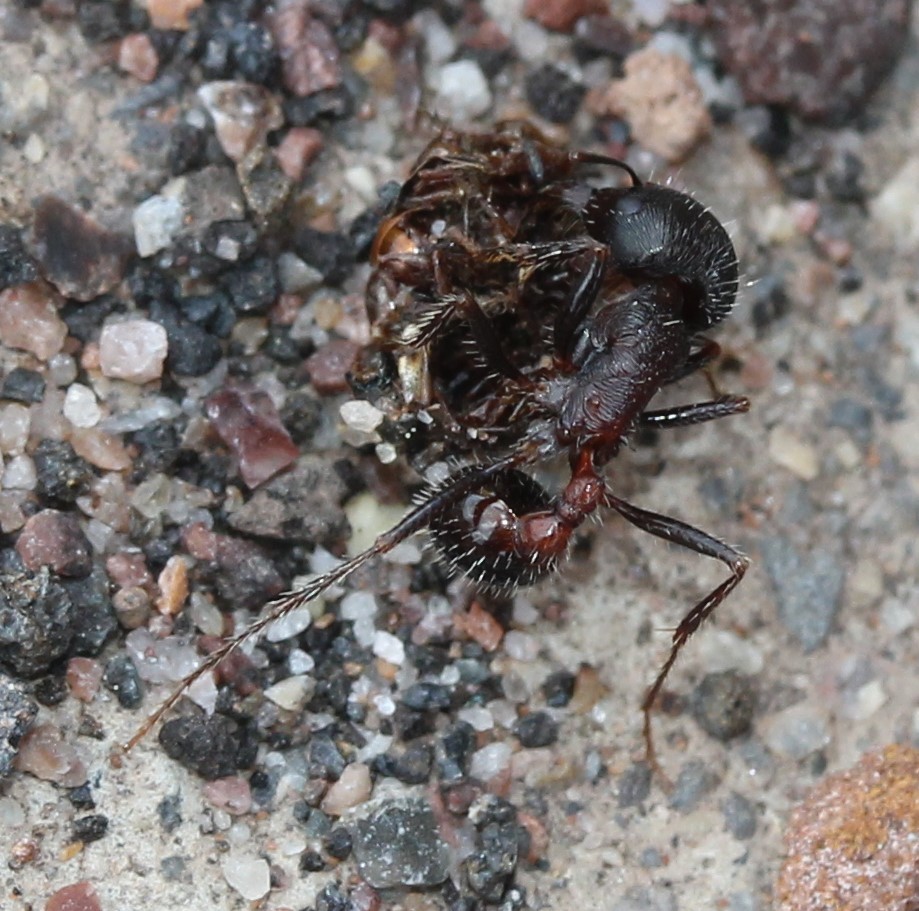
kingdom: Animalia
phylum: Arthropoda
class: Insecta
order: Hymenoptera
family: Formicidae
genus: Pogonomyrmex
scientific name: Pogonomyrmex rugosus
